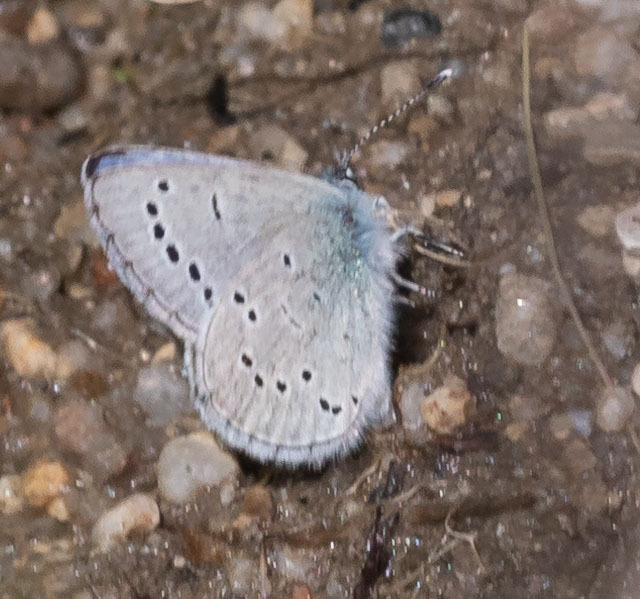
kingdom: Animalia
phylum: Arthropoda
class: Insecta
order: Lepidoptera
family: Lycaenidae
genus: Glaucopsyche
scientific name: Glaucopsyche lygdamus
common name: Silvery blue
